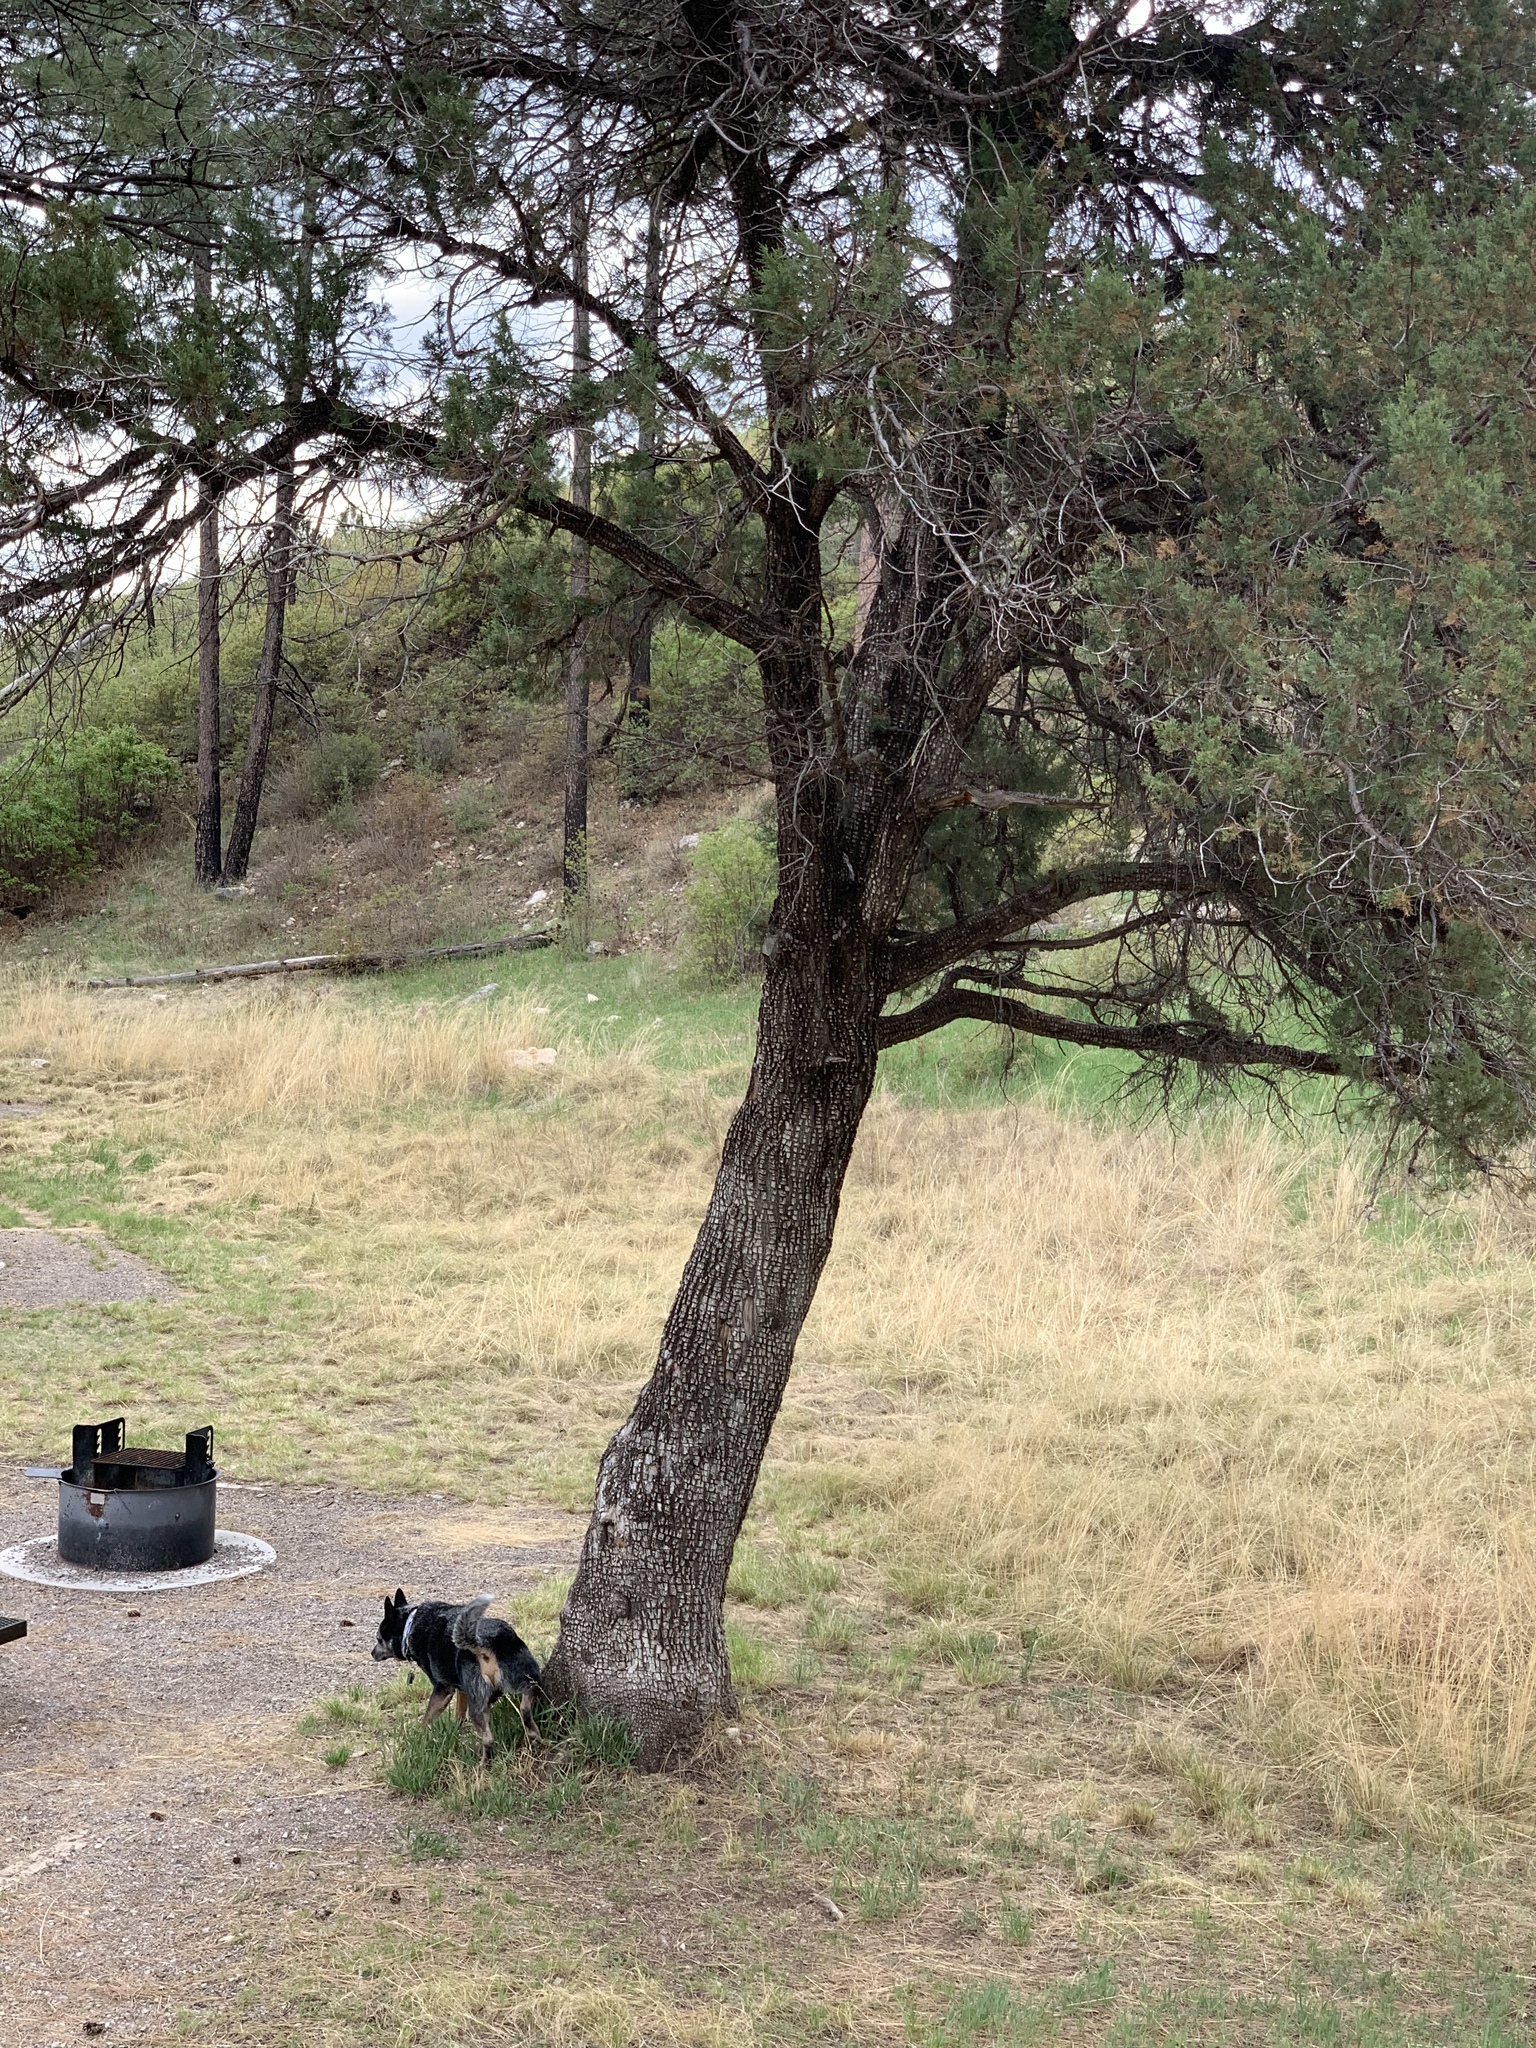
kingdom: Plantae
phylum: Tracheophyta
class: Pinopsida
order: Pinales
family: Cupressaceae
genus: Juniperus
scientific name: Juniperus deppeana
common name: Alligator juniper
